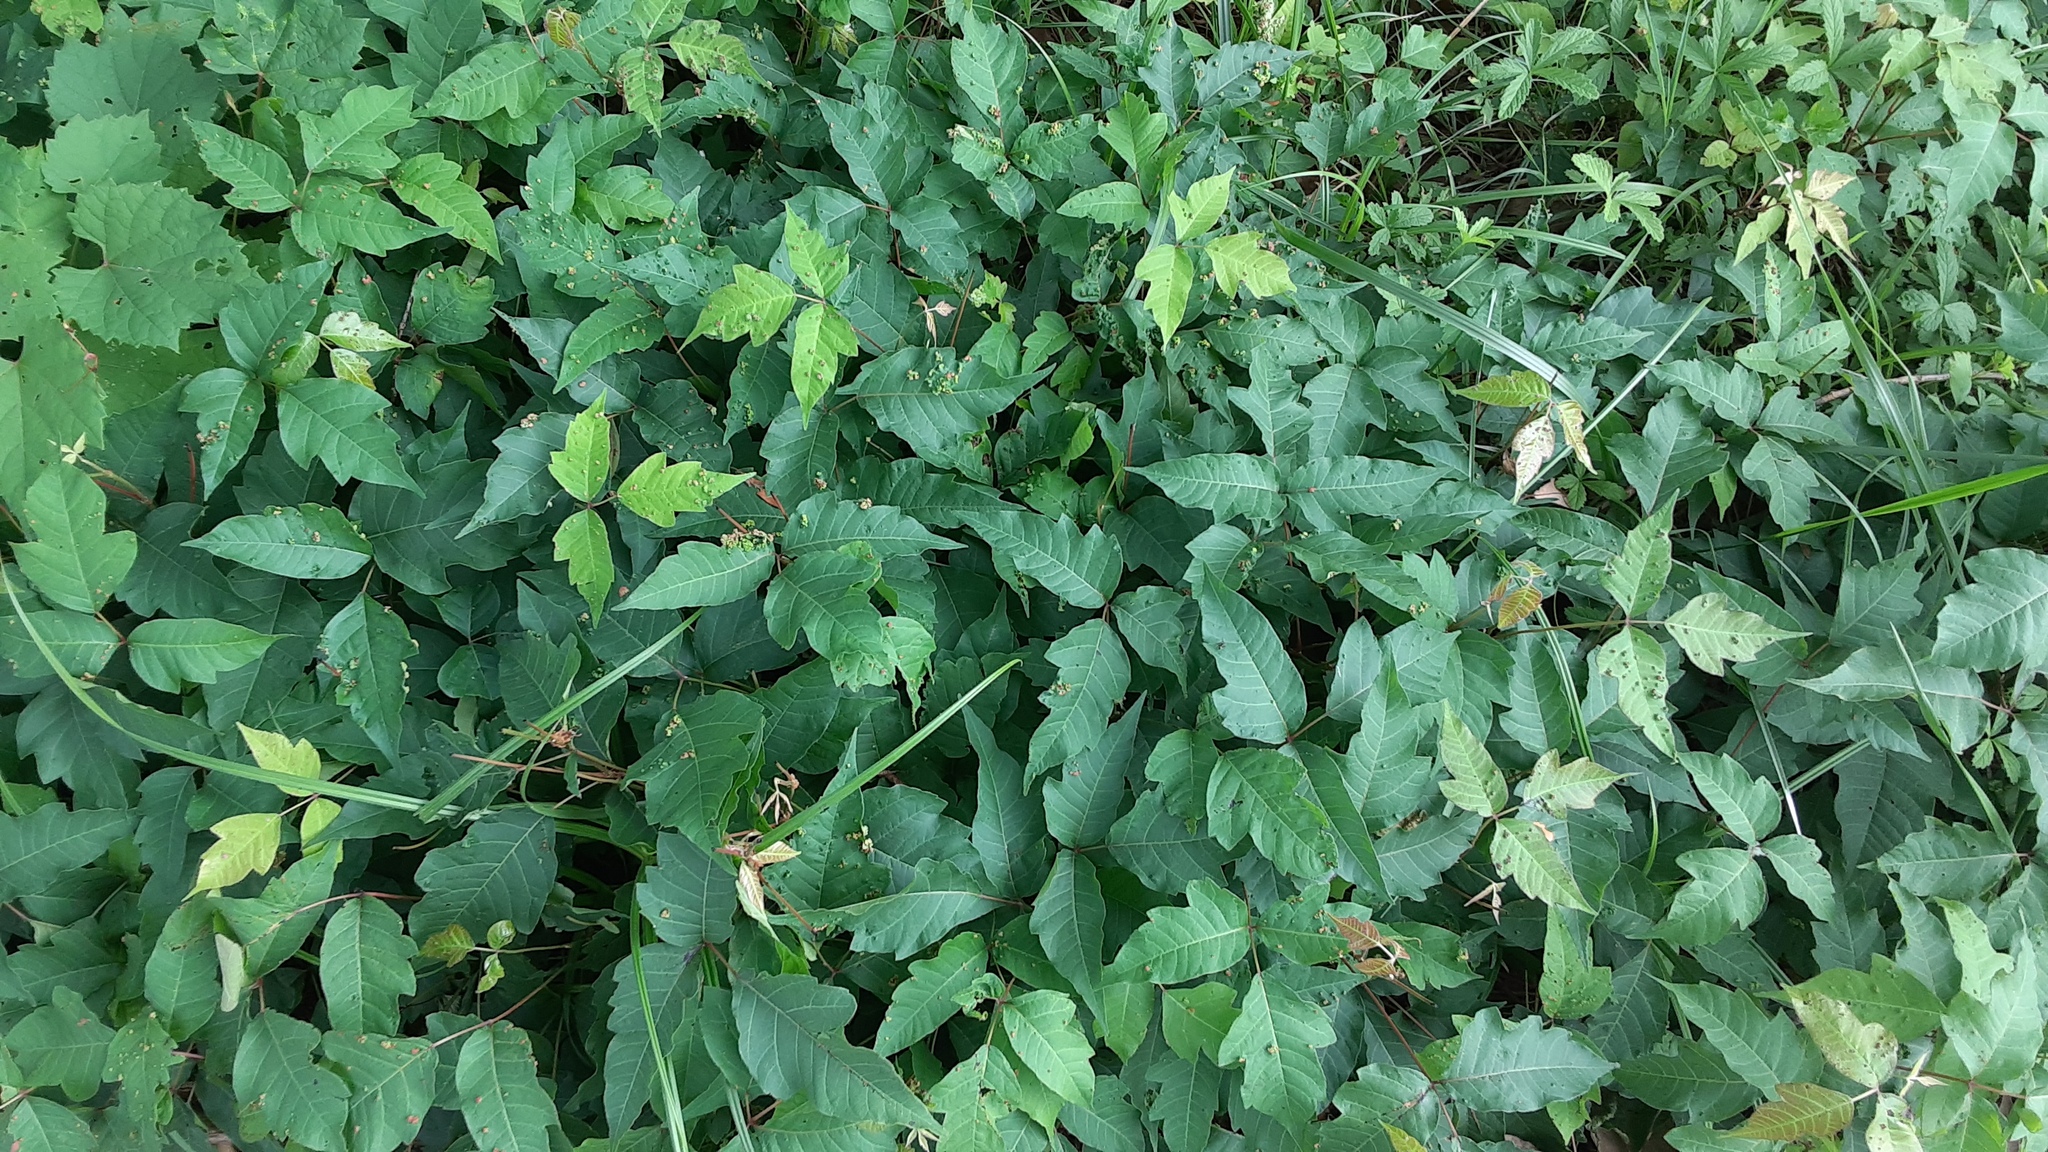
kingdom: Animalia
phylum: Arthropoda
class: Arachnida
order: Trombidiformes
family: Eriophyidae
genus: Aculops
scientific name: Aculops
